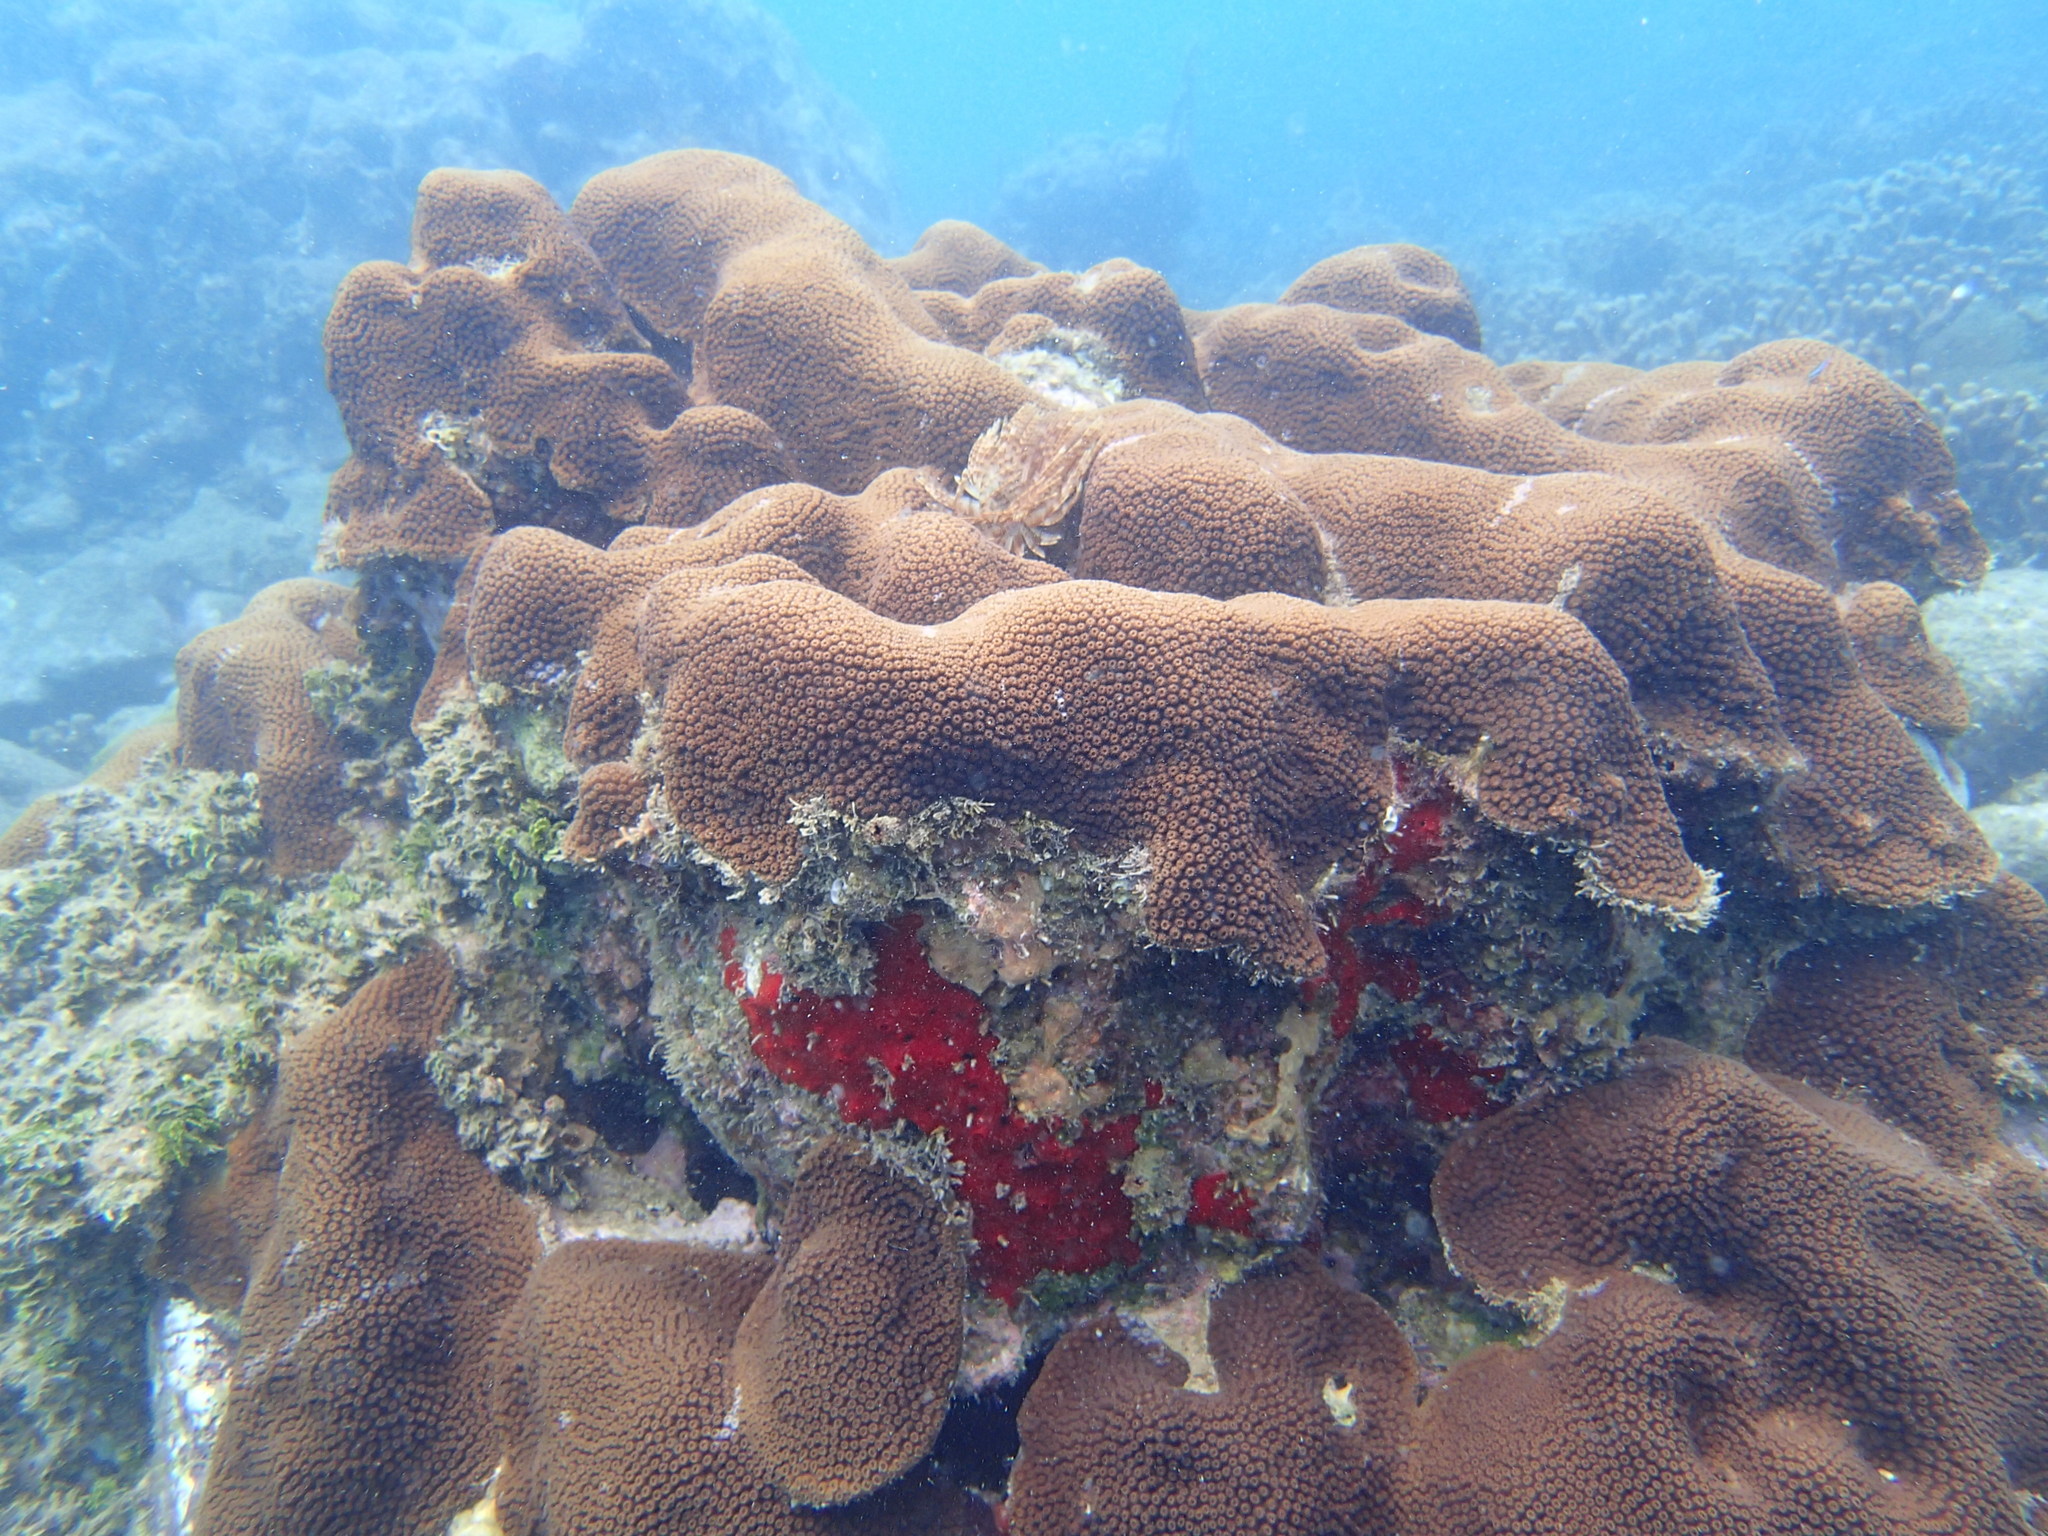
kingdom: Animalia
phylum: Cnidaria
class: Anthozoa
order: Scleractinia
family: Merulinidae
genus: Orbicella
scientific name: Orbicella annularis
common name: Boulder star coral
